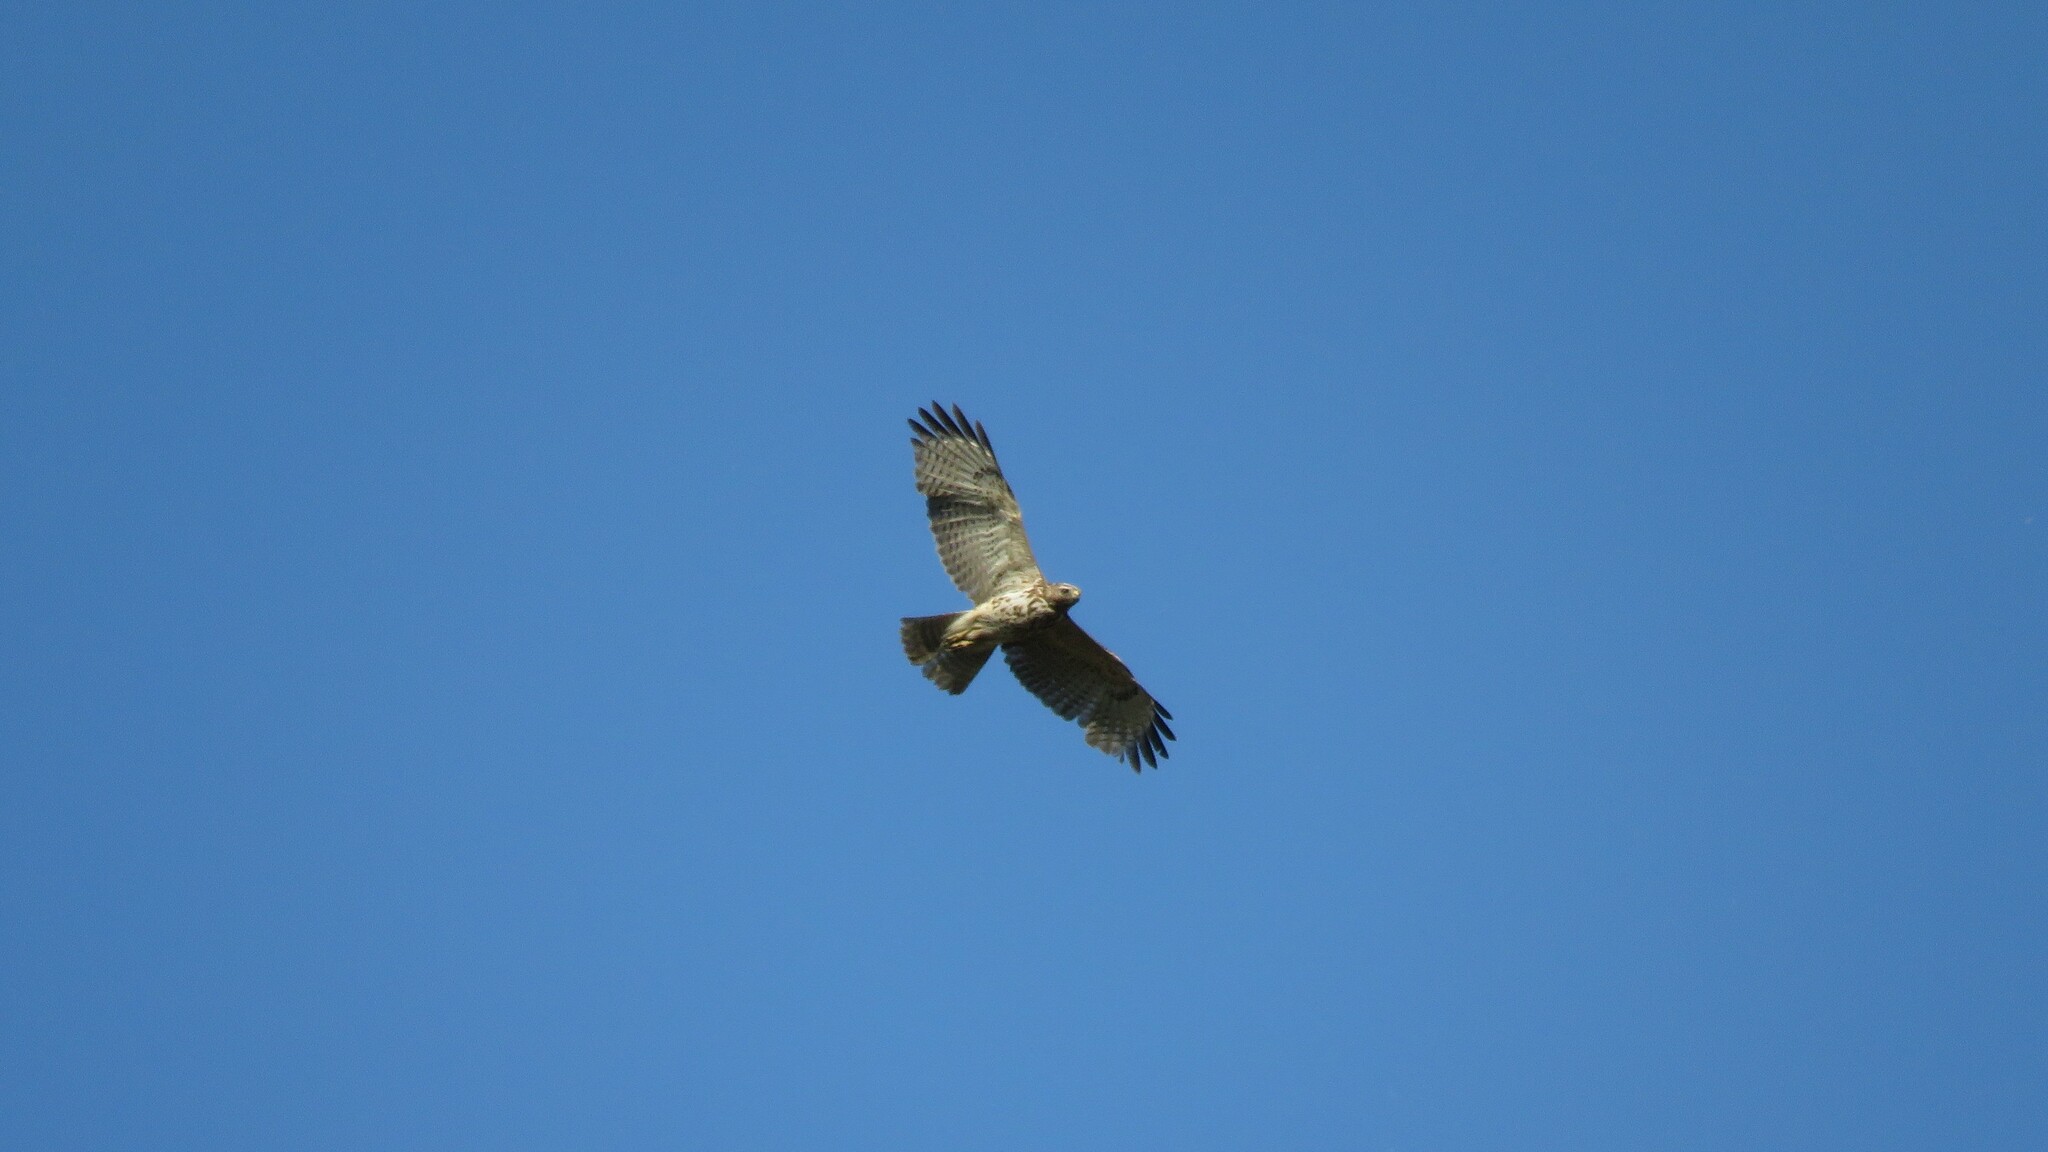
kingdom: Animalia
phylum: Chordata
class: Aves
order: Accipitriformes
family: Accipitridae
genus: Buteo
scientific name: Buteo lineatus
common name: Red-shouldered hawk
